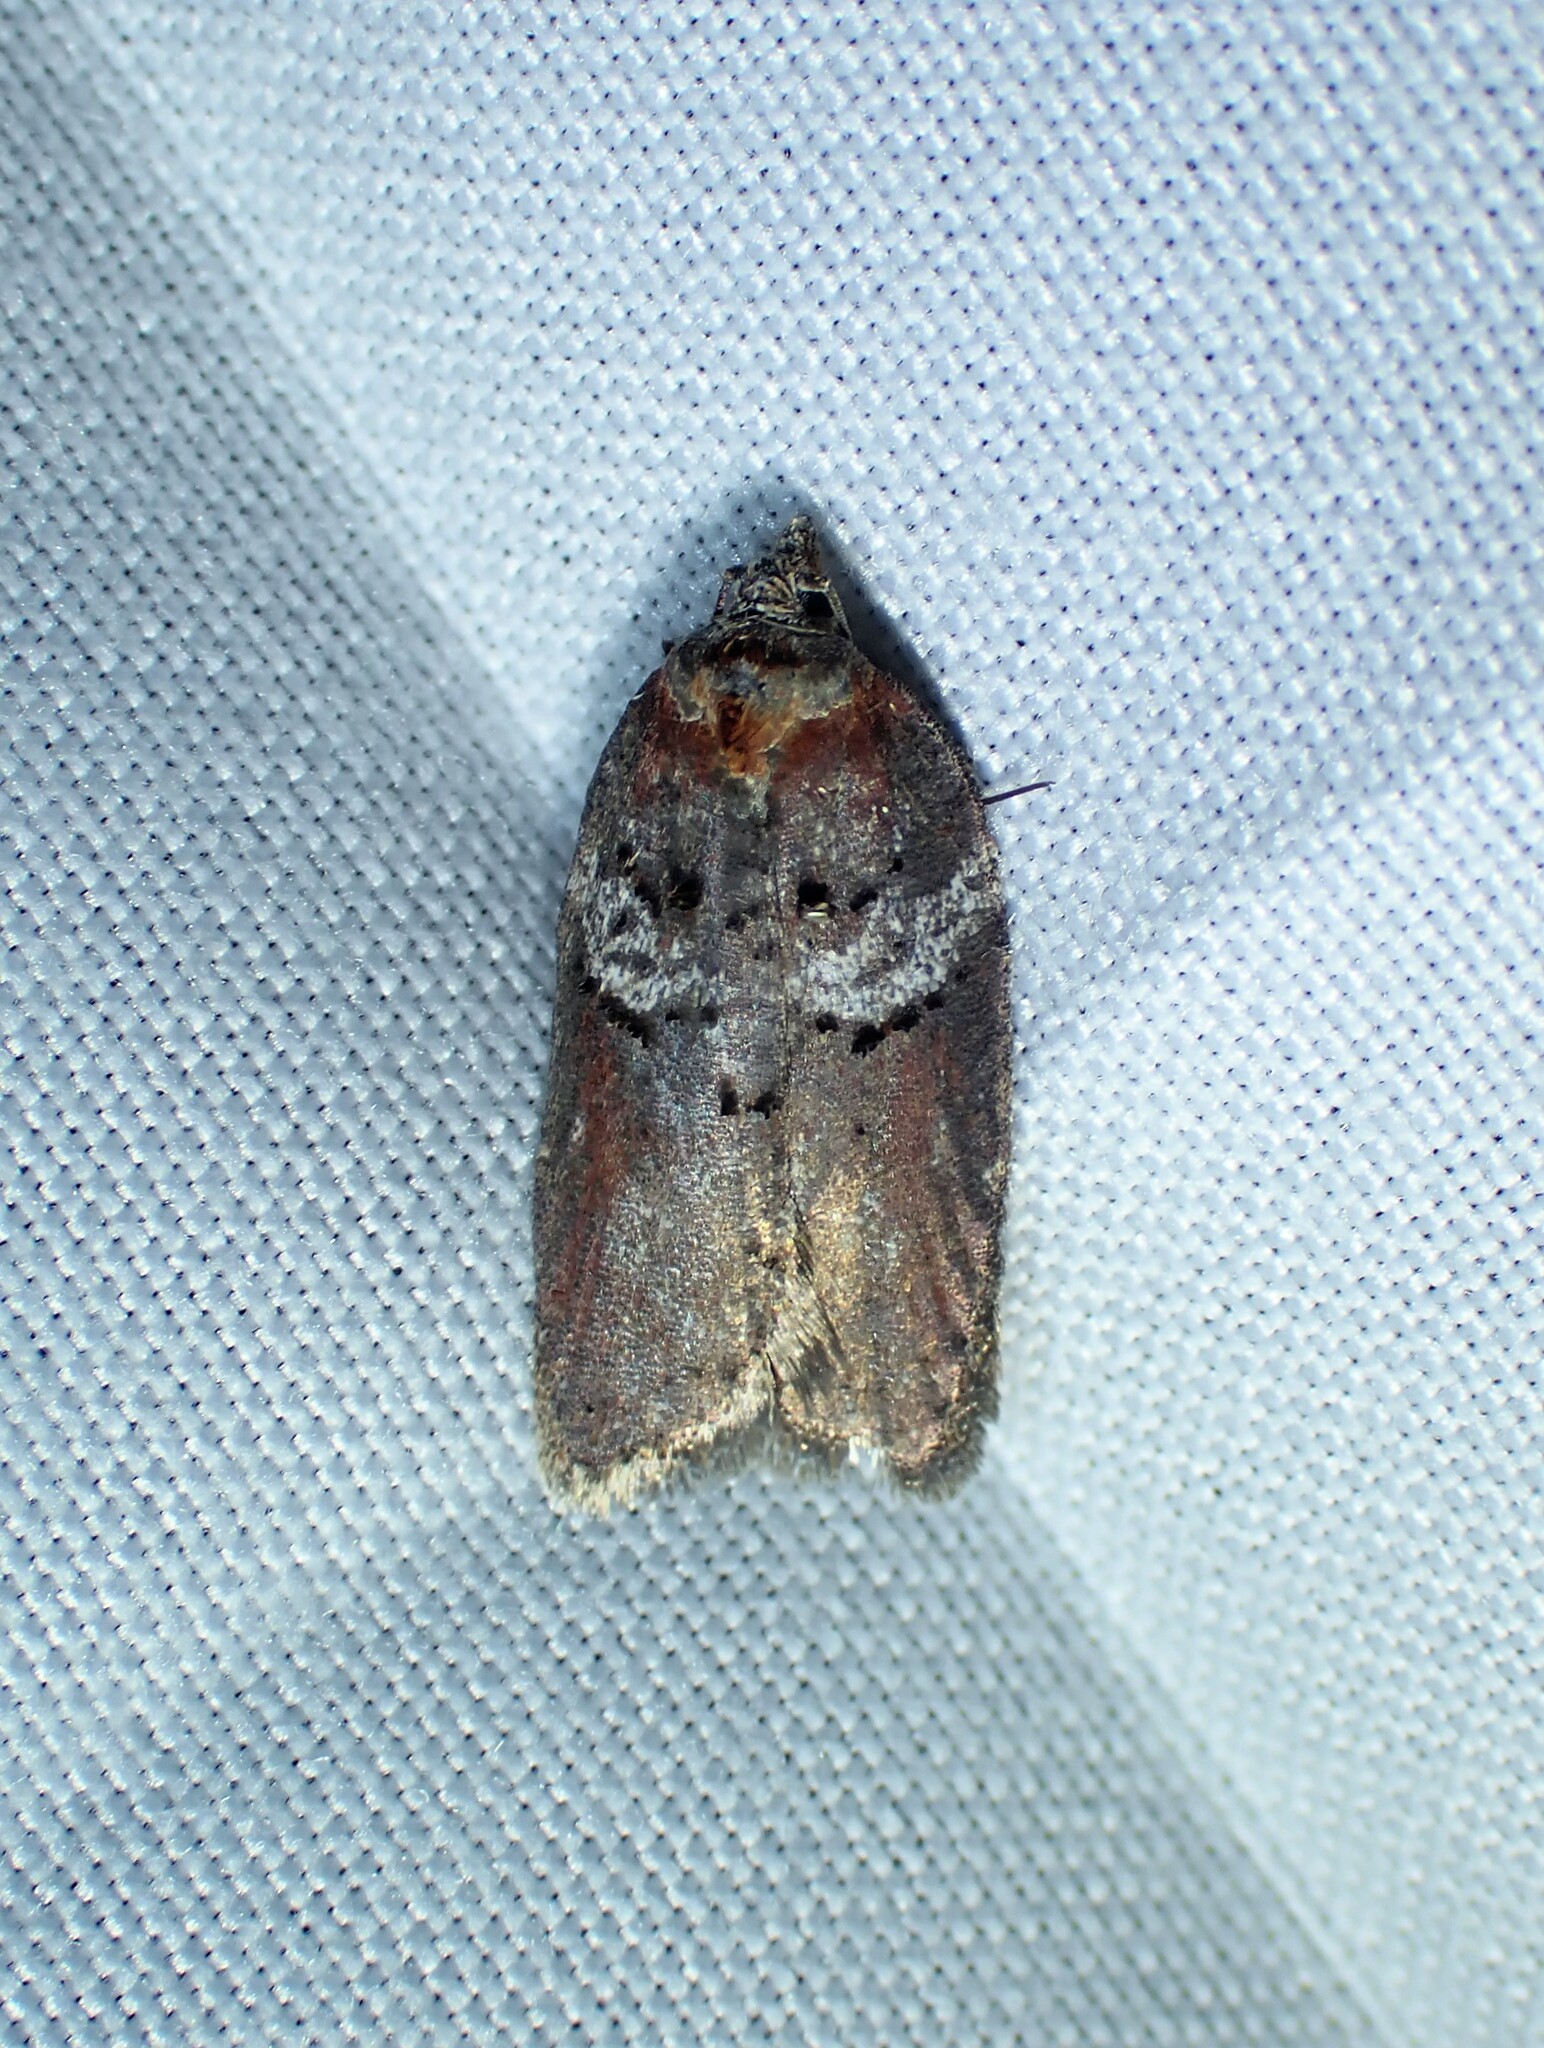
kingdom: Animalia
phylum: Arthropoda
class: Insecta
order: Lepidoptera
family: Tortricidae
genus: Acleris
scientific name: Acleris celiana
